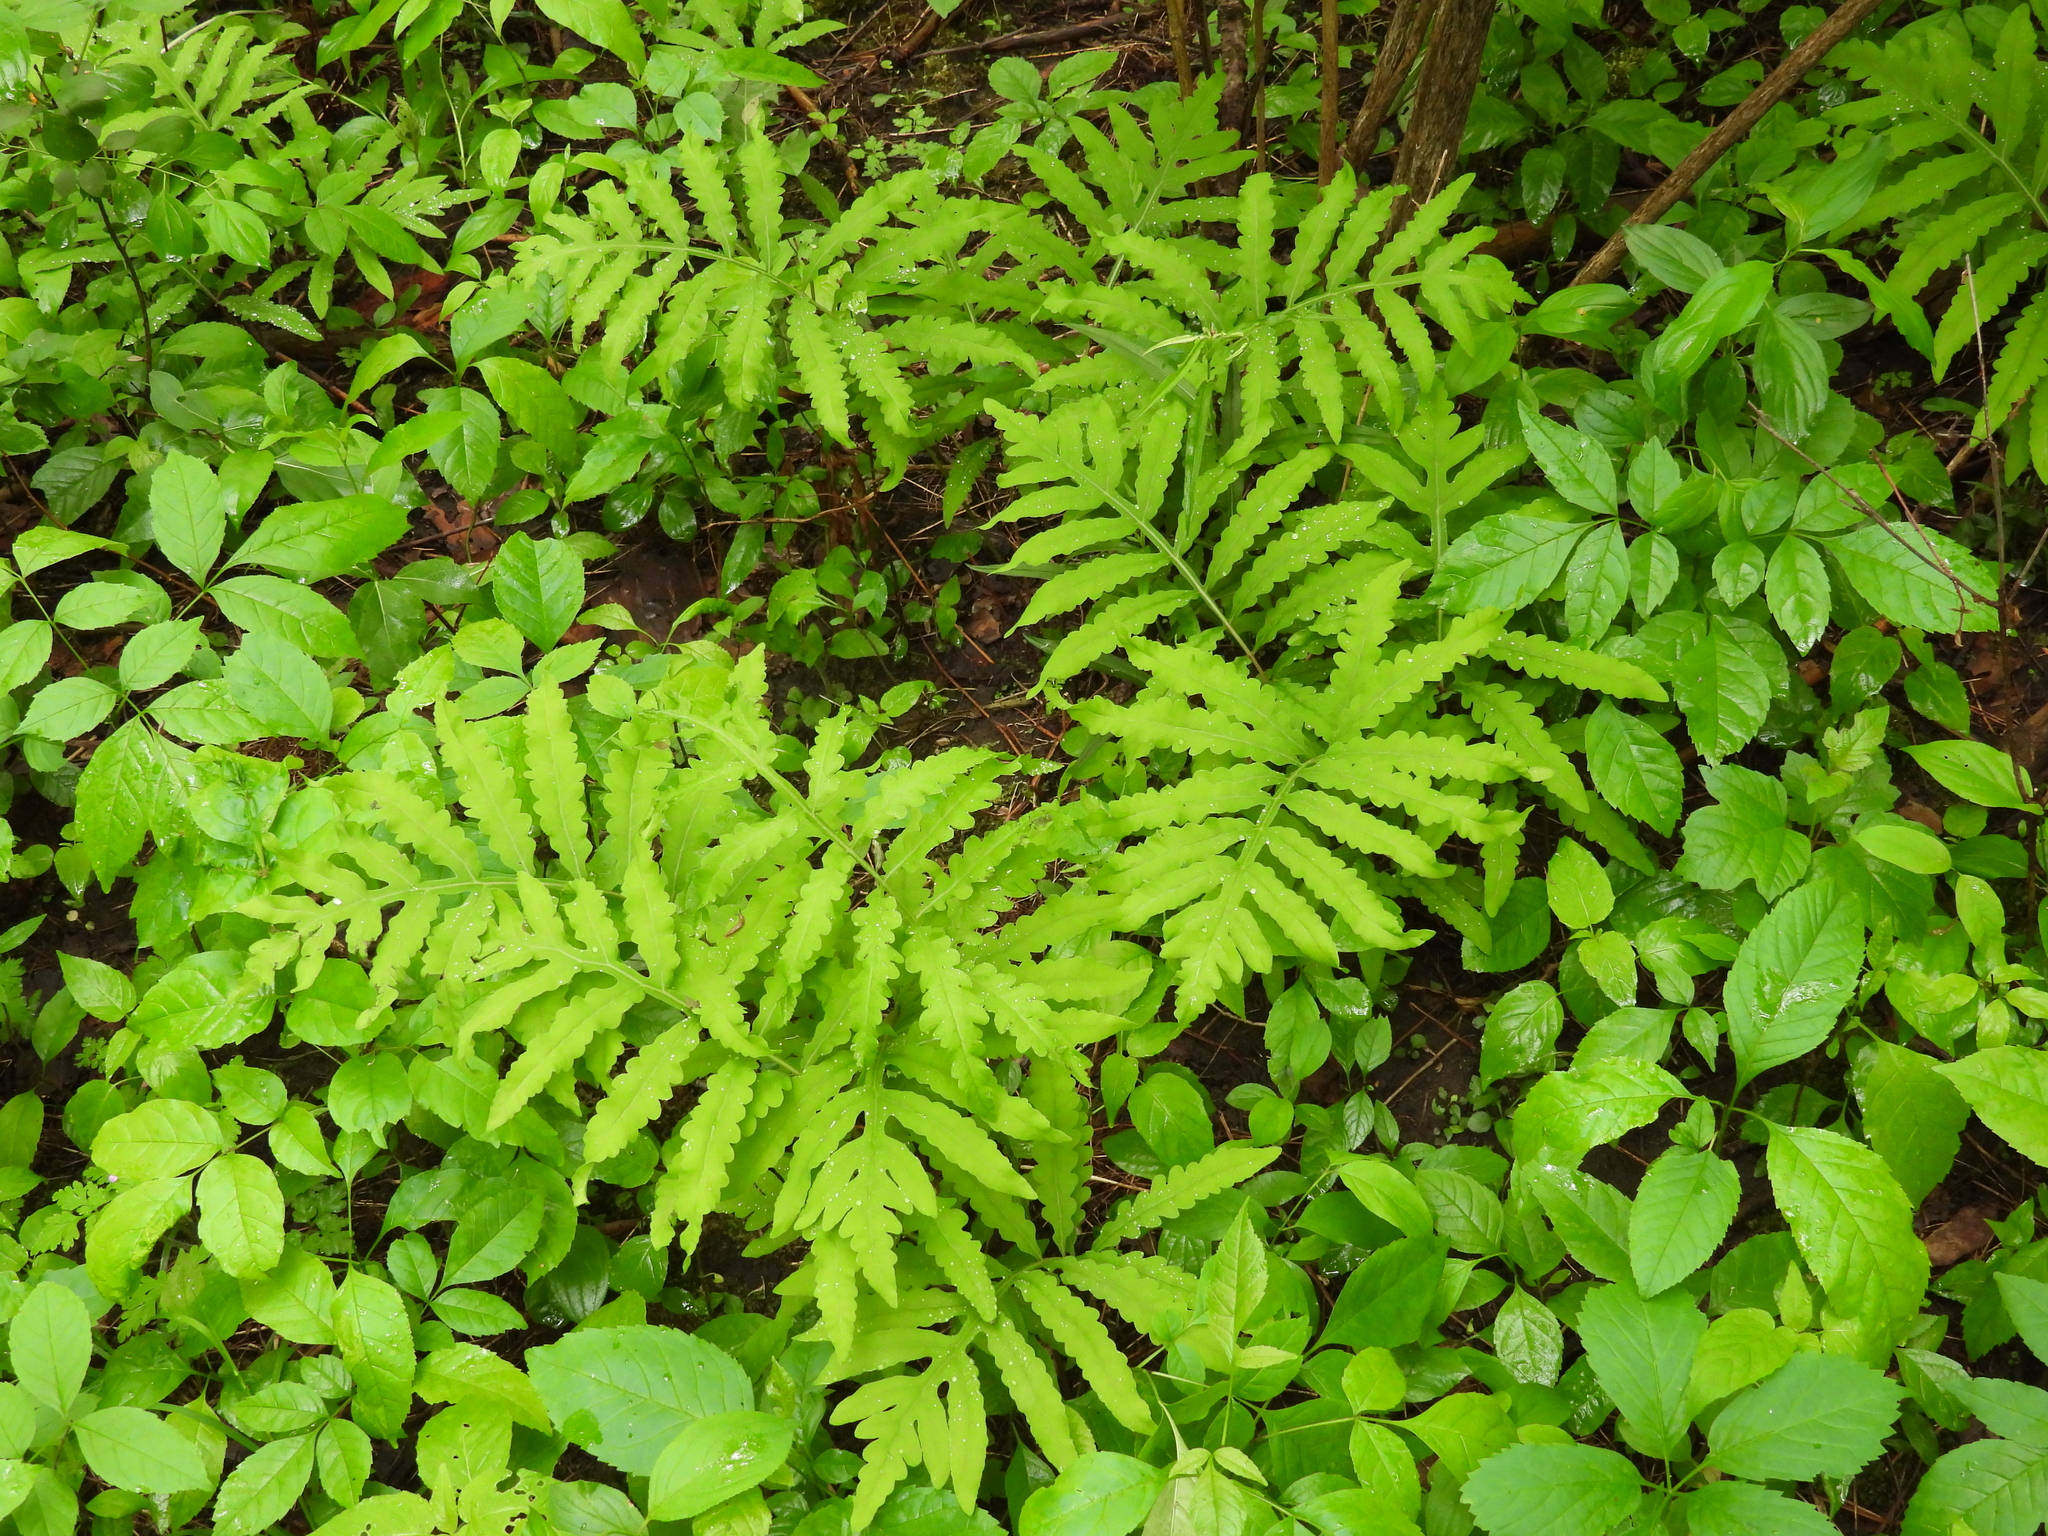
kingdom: Plantae
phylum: Tracheophyta
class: Polypodiopsida
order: Polypodiales
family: Onocleaceae
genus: Onoclea
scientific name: Onoclea sensibilis
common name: Sensitive fern
